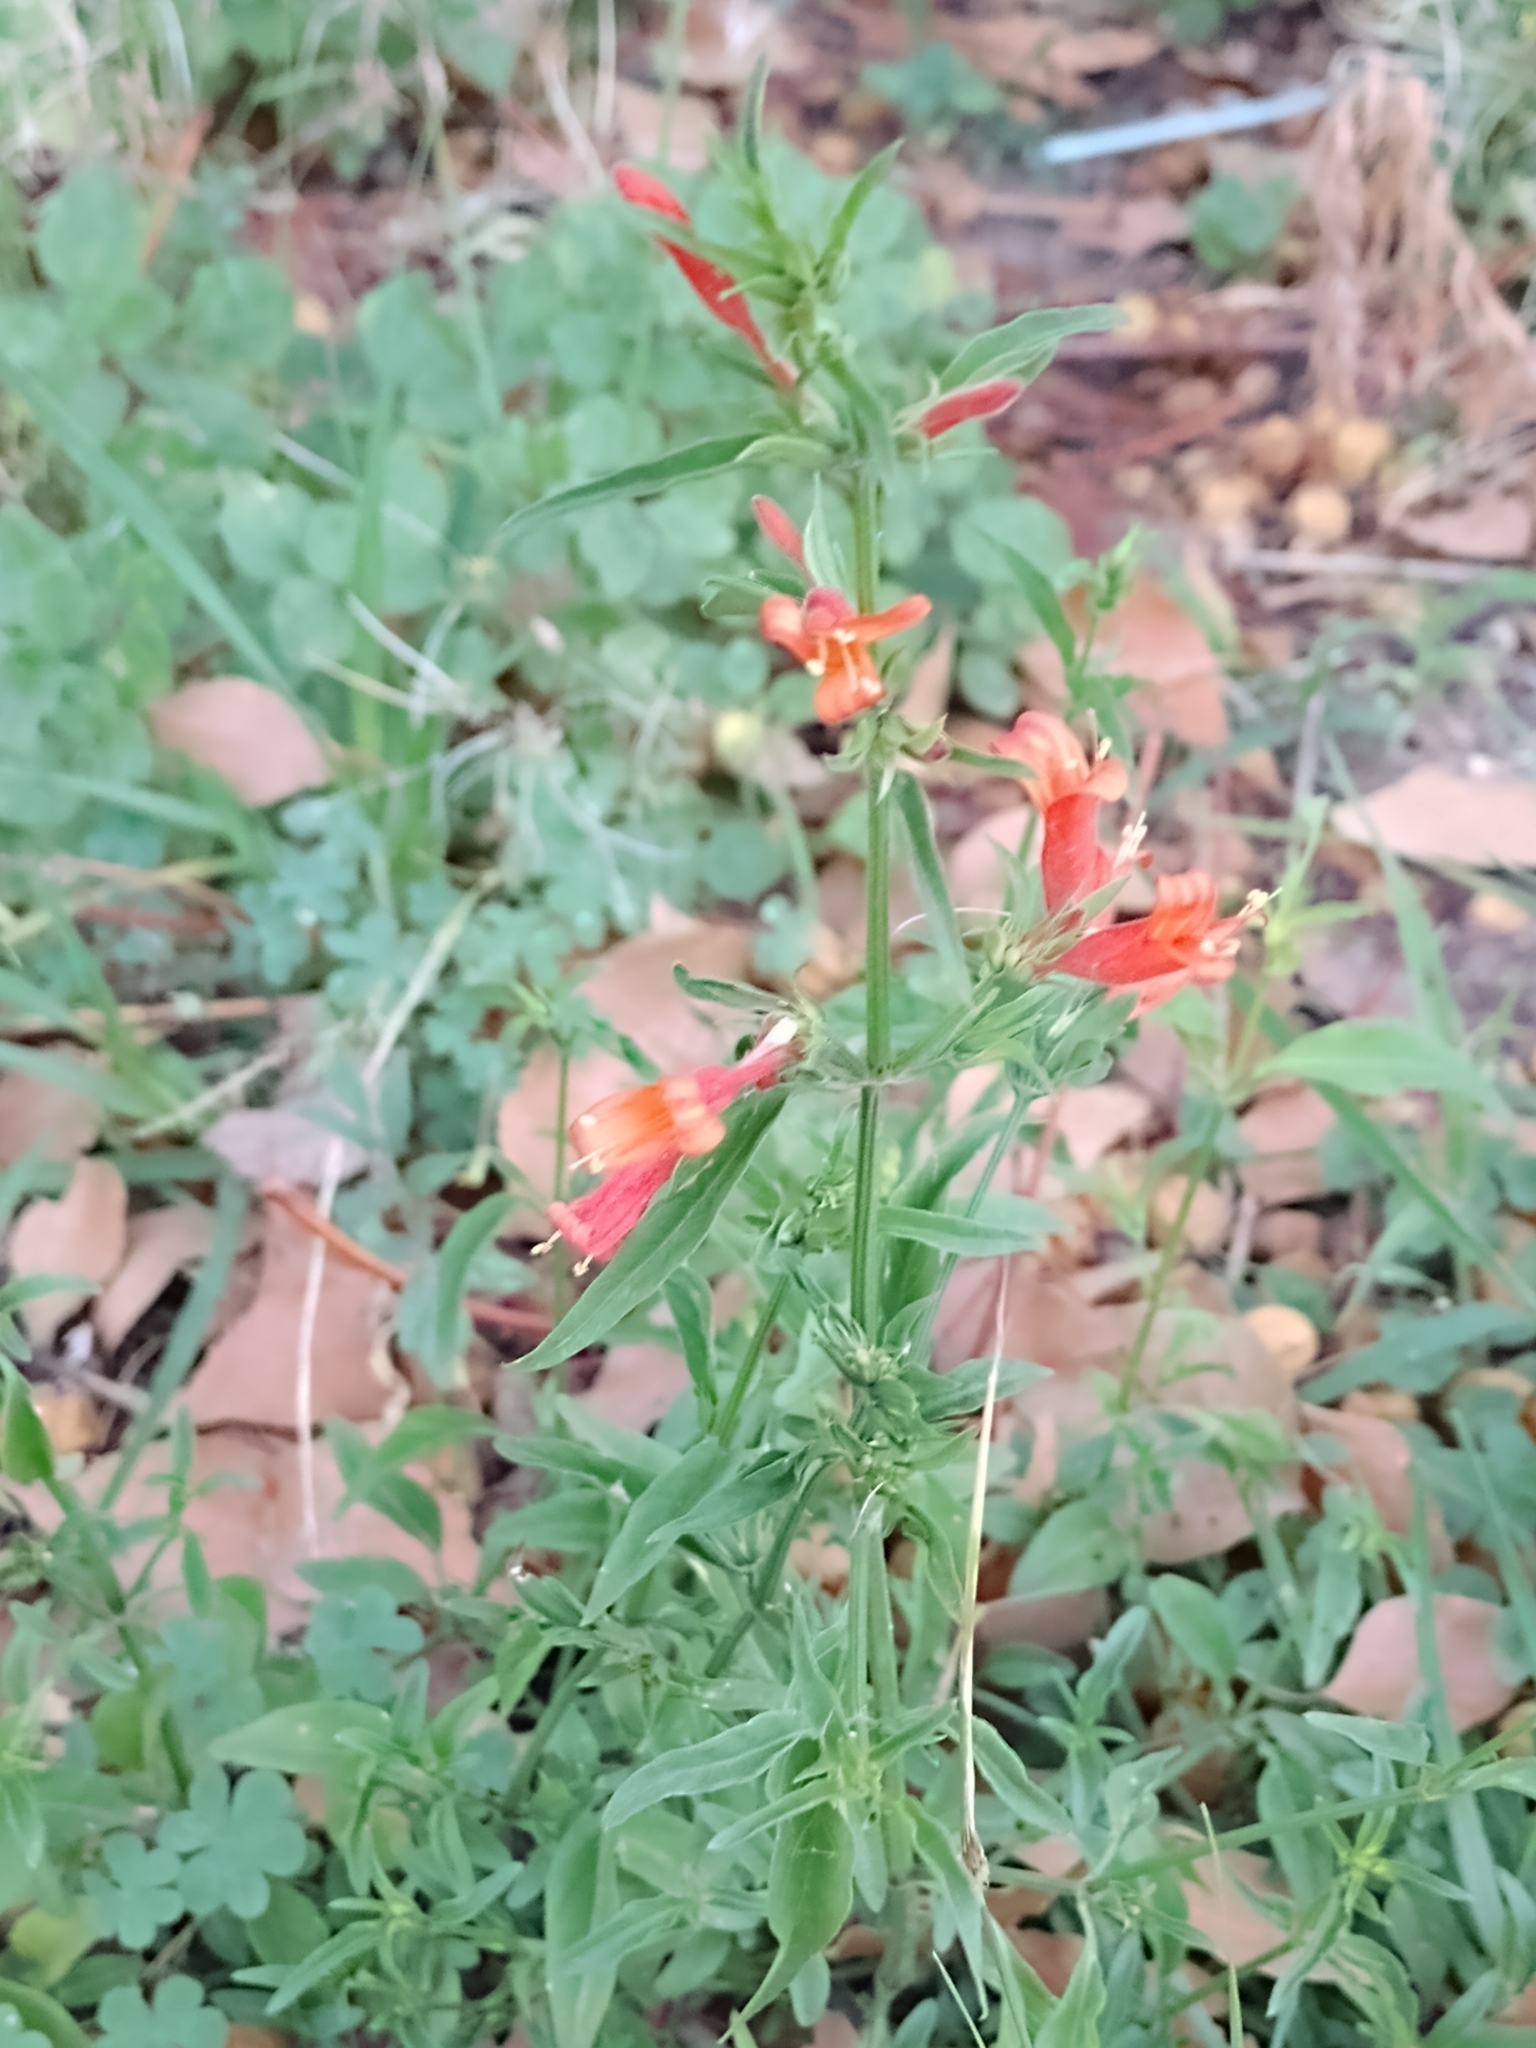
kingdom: Plantae
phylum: Tracheophyta
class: Magnoliopsida
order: Lamiales
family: Acanthaceae
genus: Dicliptera
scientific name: Dicliptera squarrosa
